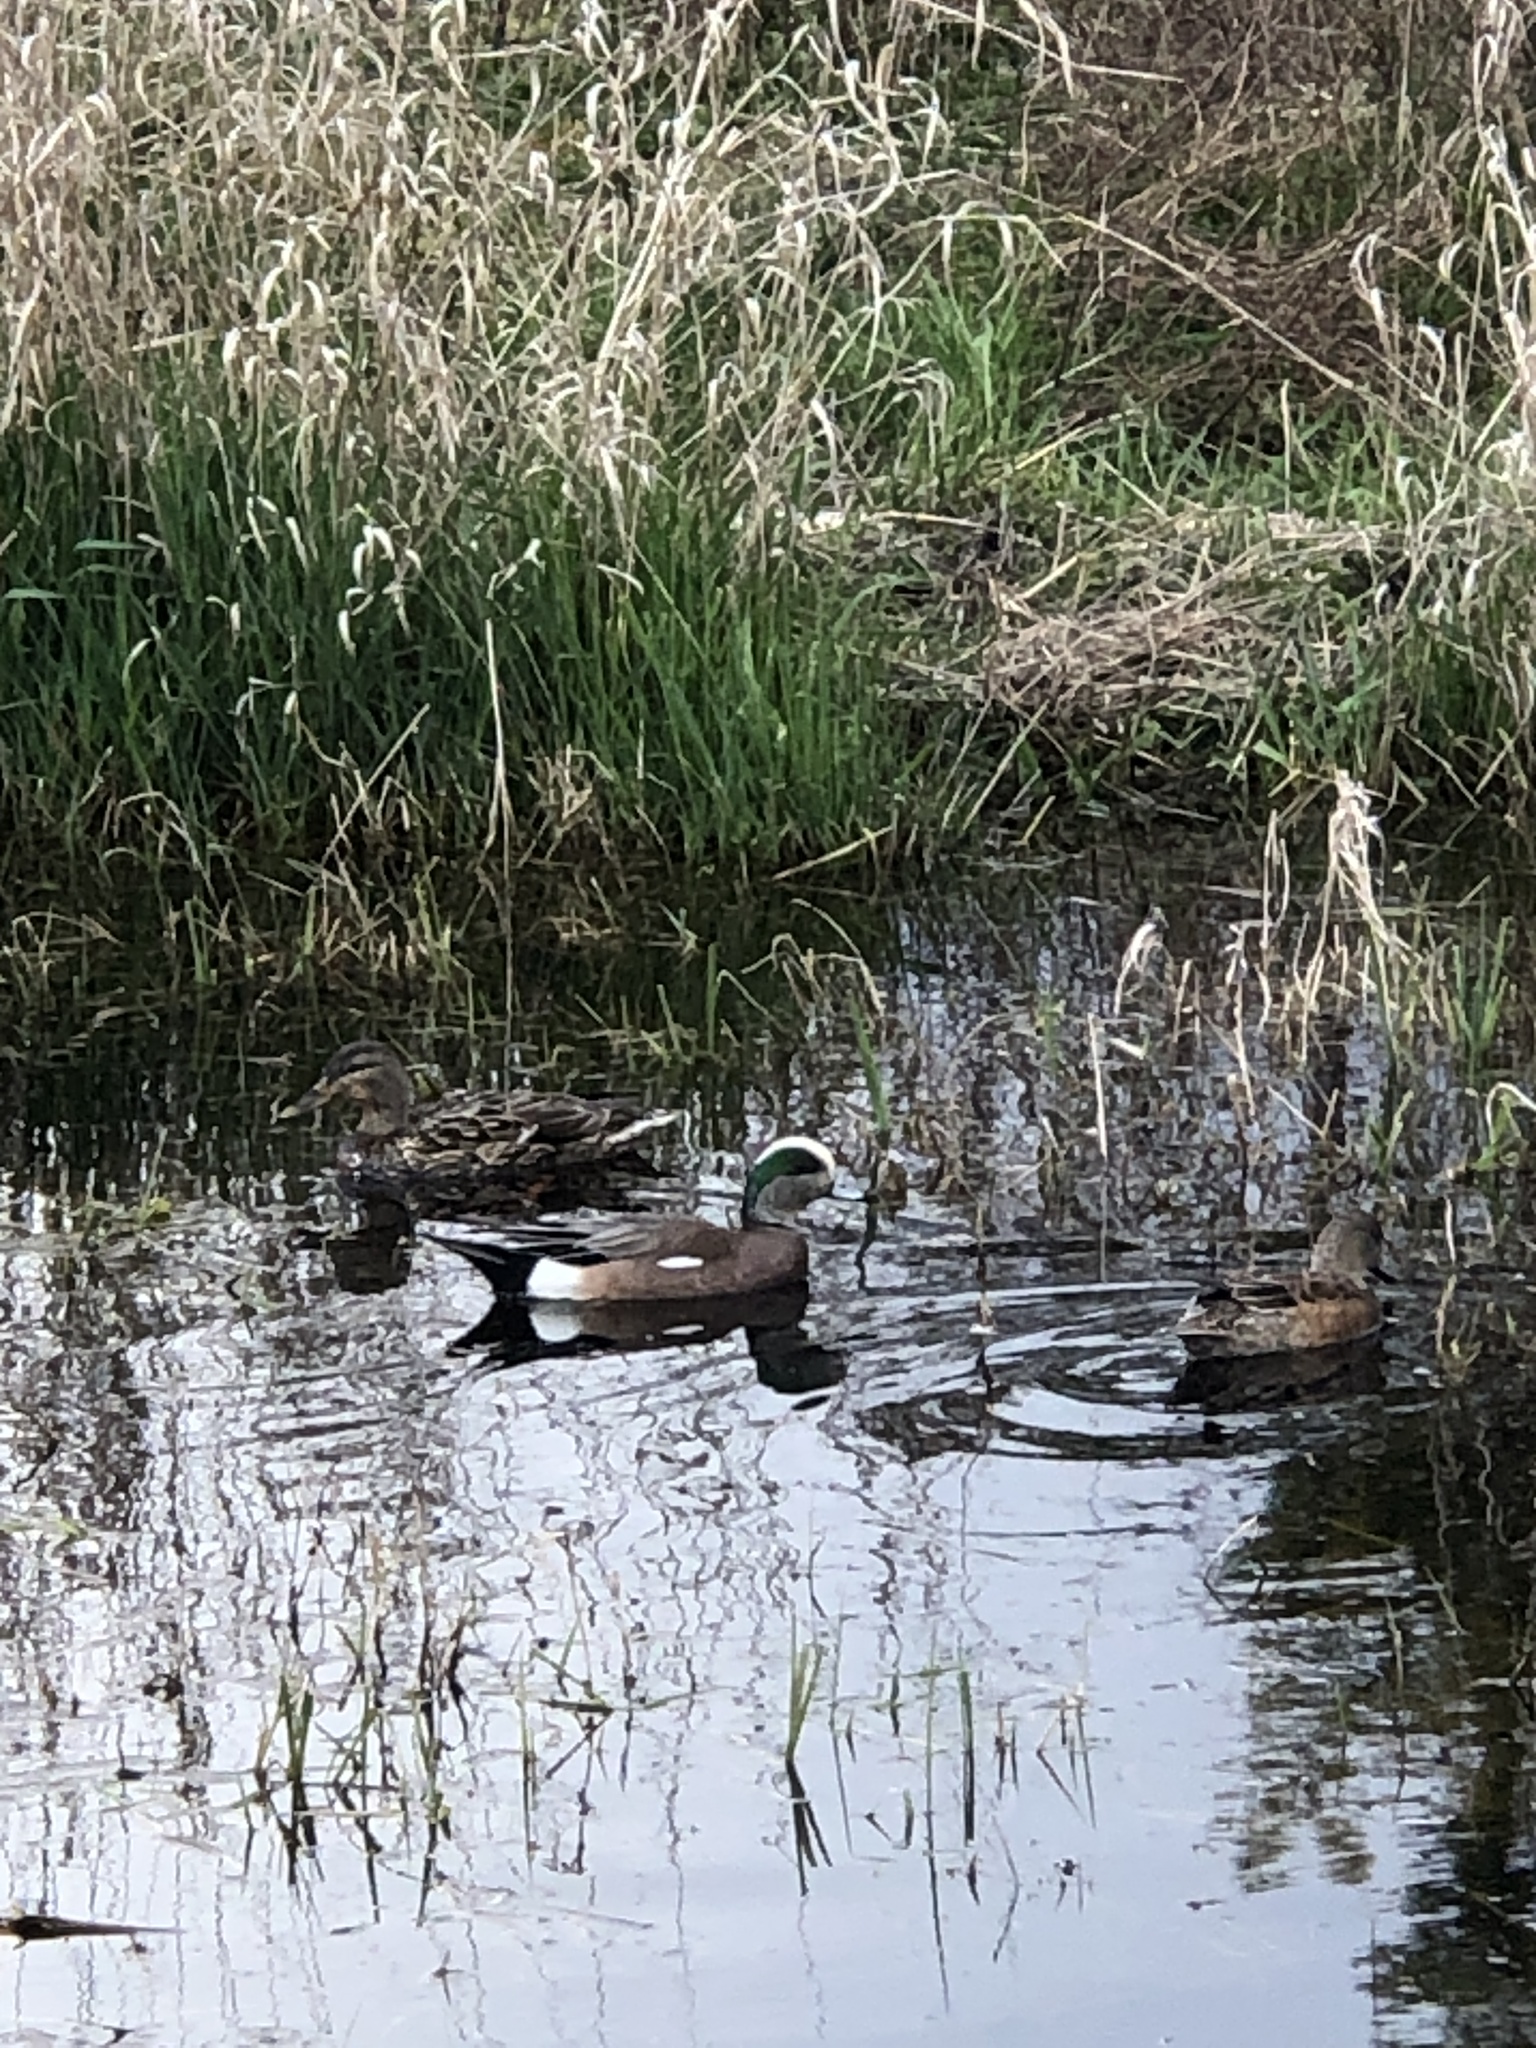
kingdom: Animalia
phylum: Chordata
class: Aves
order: Anseriformes
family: Anatidae
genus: Mareca
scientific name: Mareca americana
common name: American wigeon
